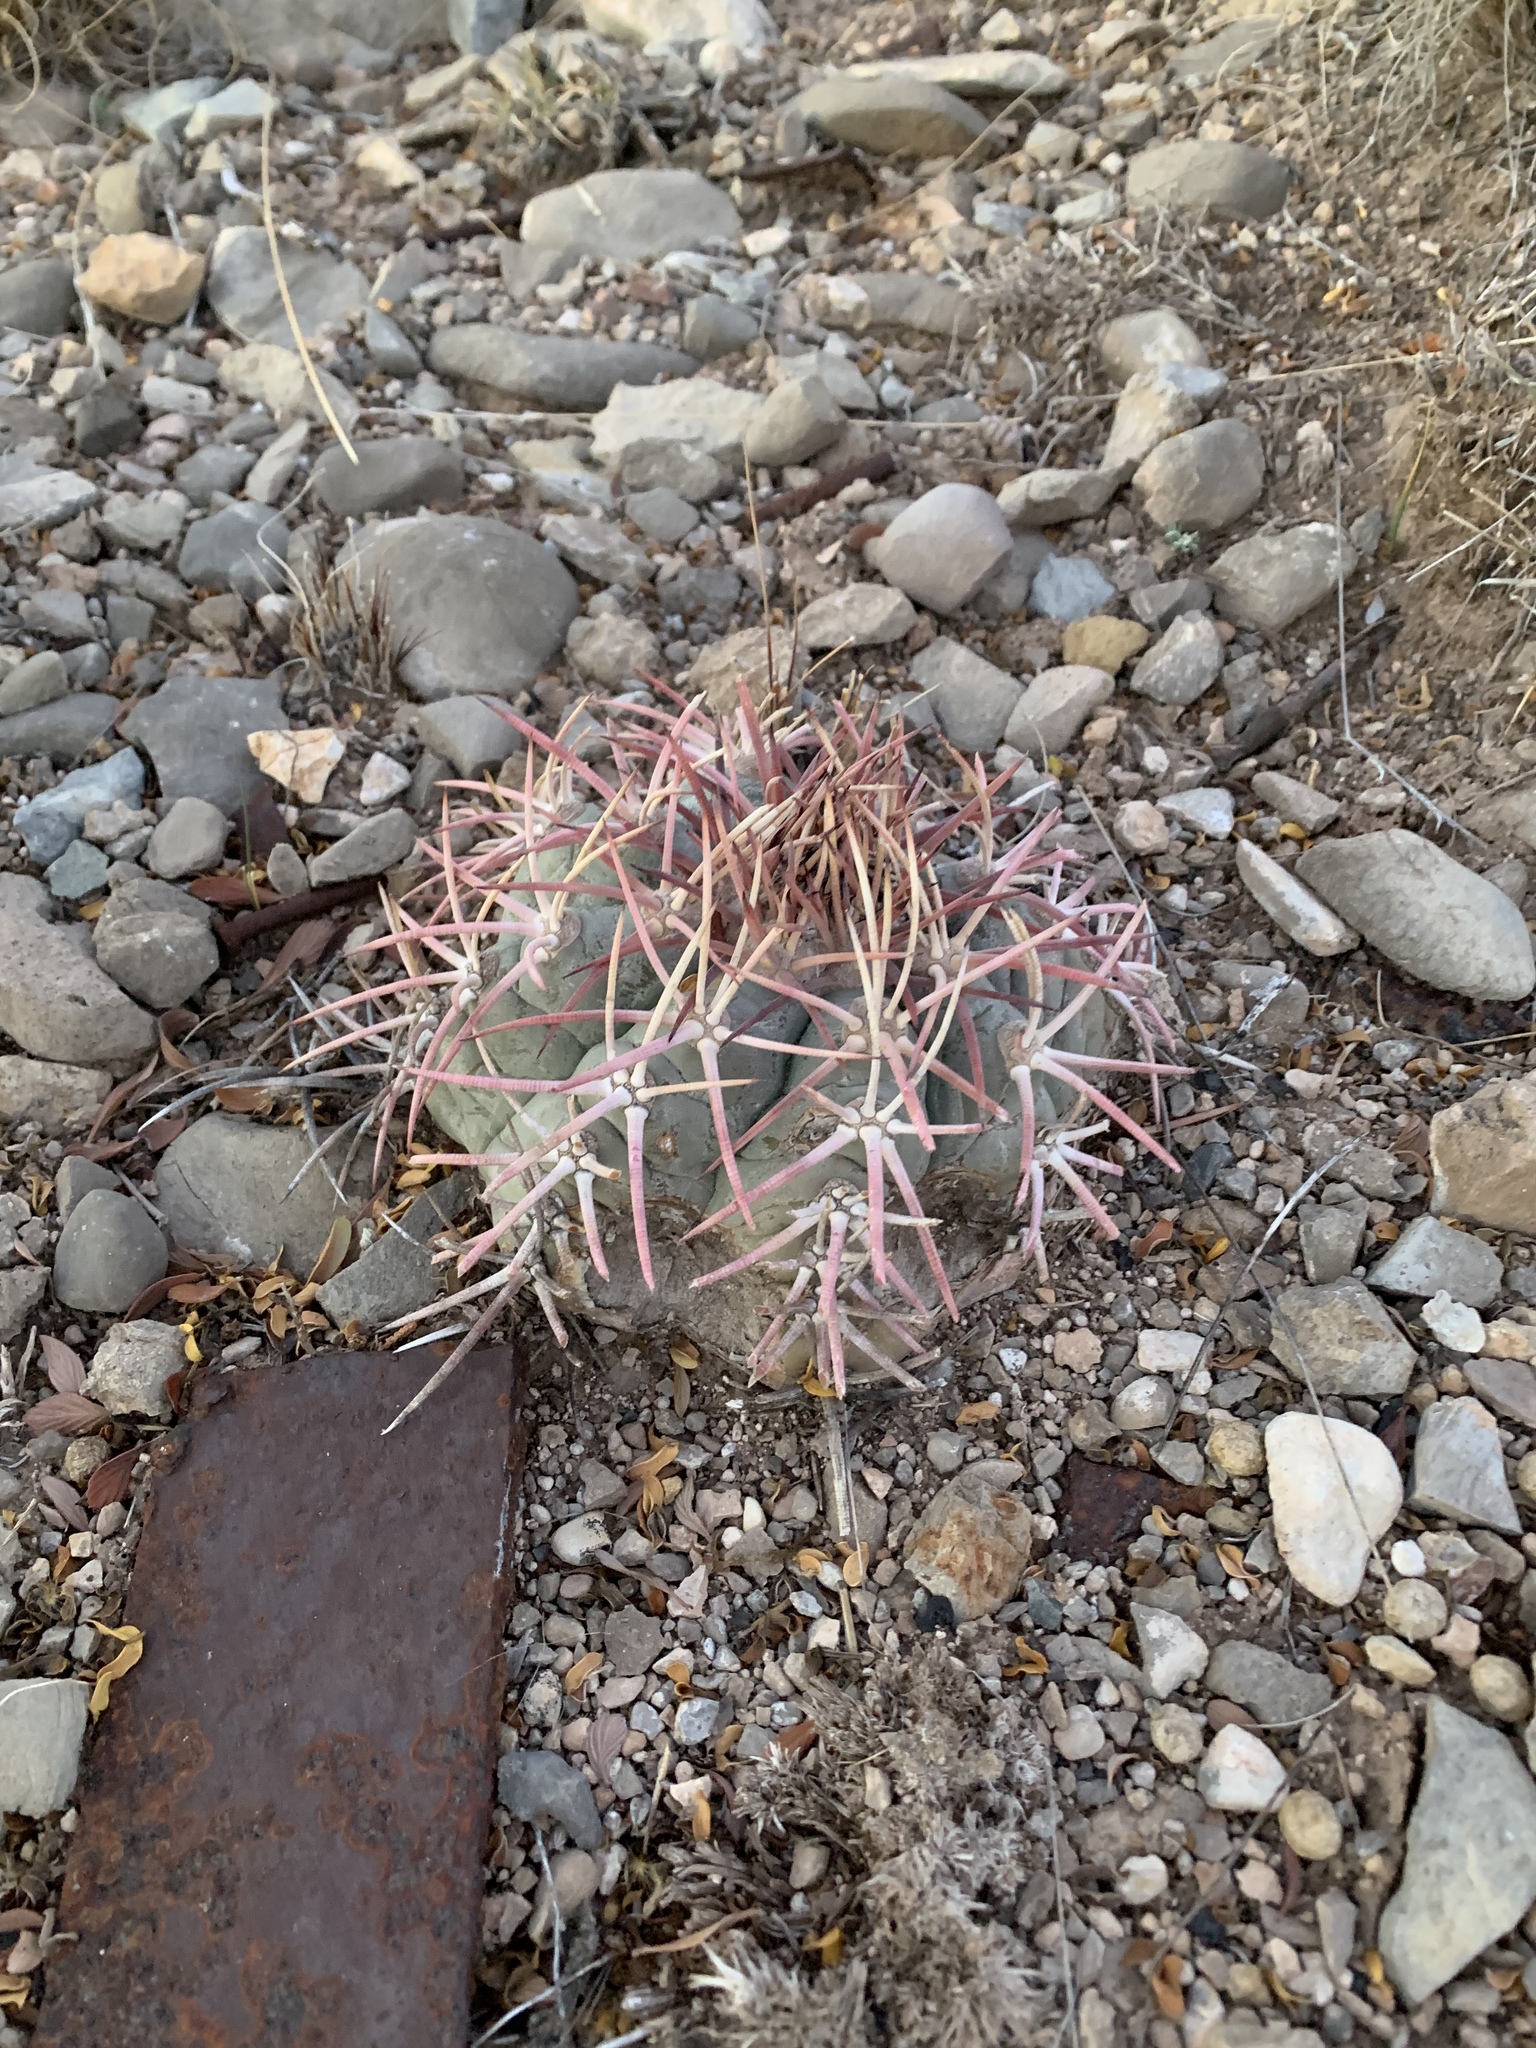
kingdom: Plantae
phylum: Tracheophyta
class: Magnoliopsida
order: Caryophyllales
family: Cactaceae
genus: Echinocactus
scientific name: Echinocactus horizonthalonius
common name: Devilshead
